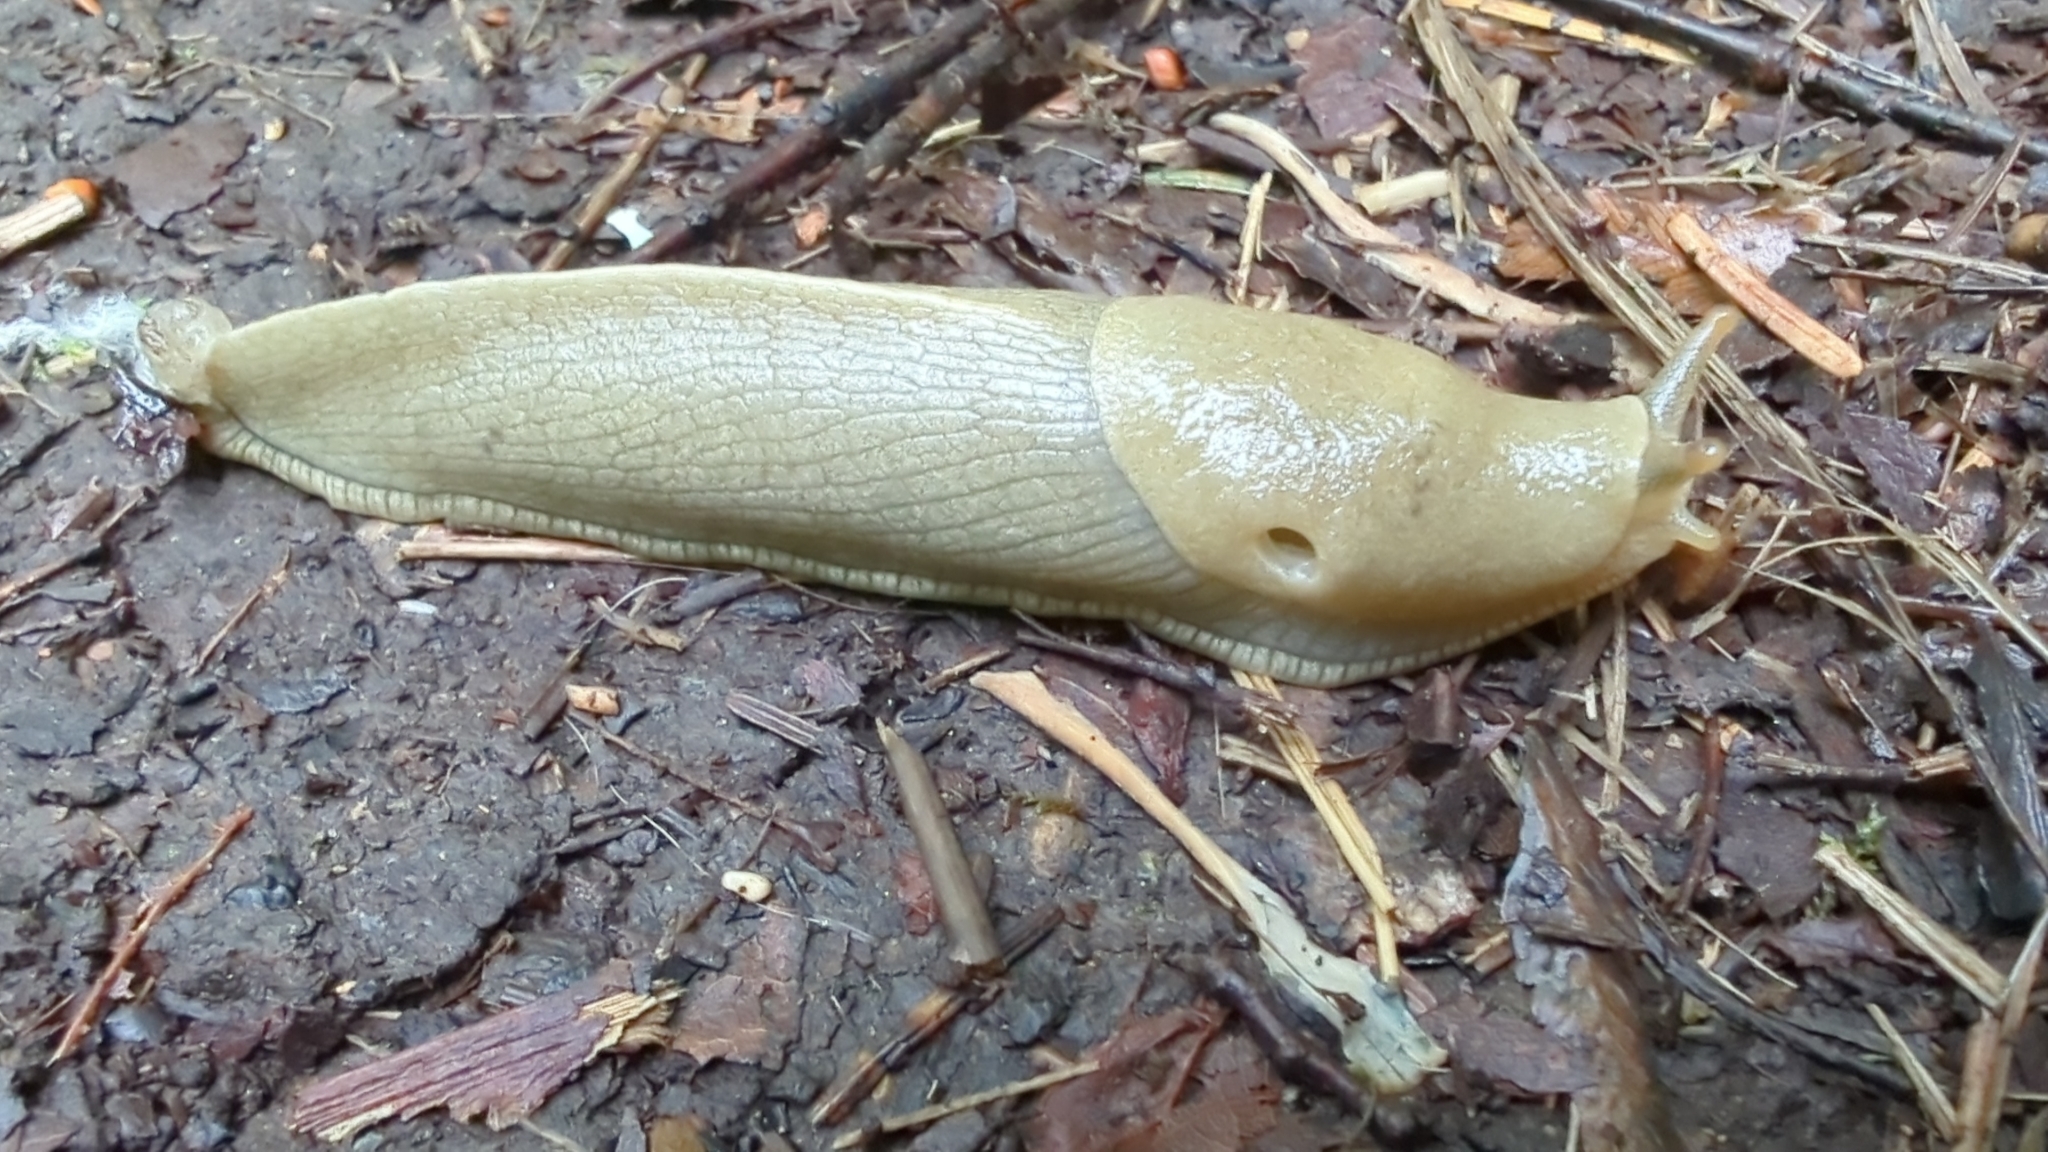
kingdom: Animalia
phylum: Mollusca
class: Gastropoda
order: Stylommatophora
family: Ariolimacidae
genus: Ariolimax
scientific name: Ariolimax columbianus
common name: Pacific banana slug
